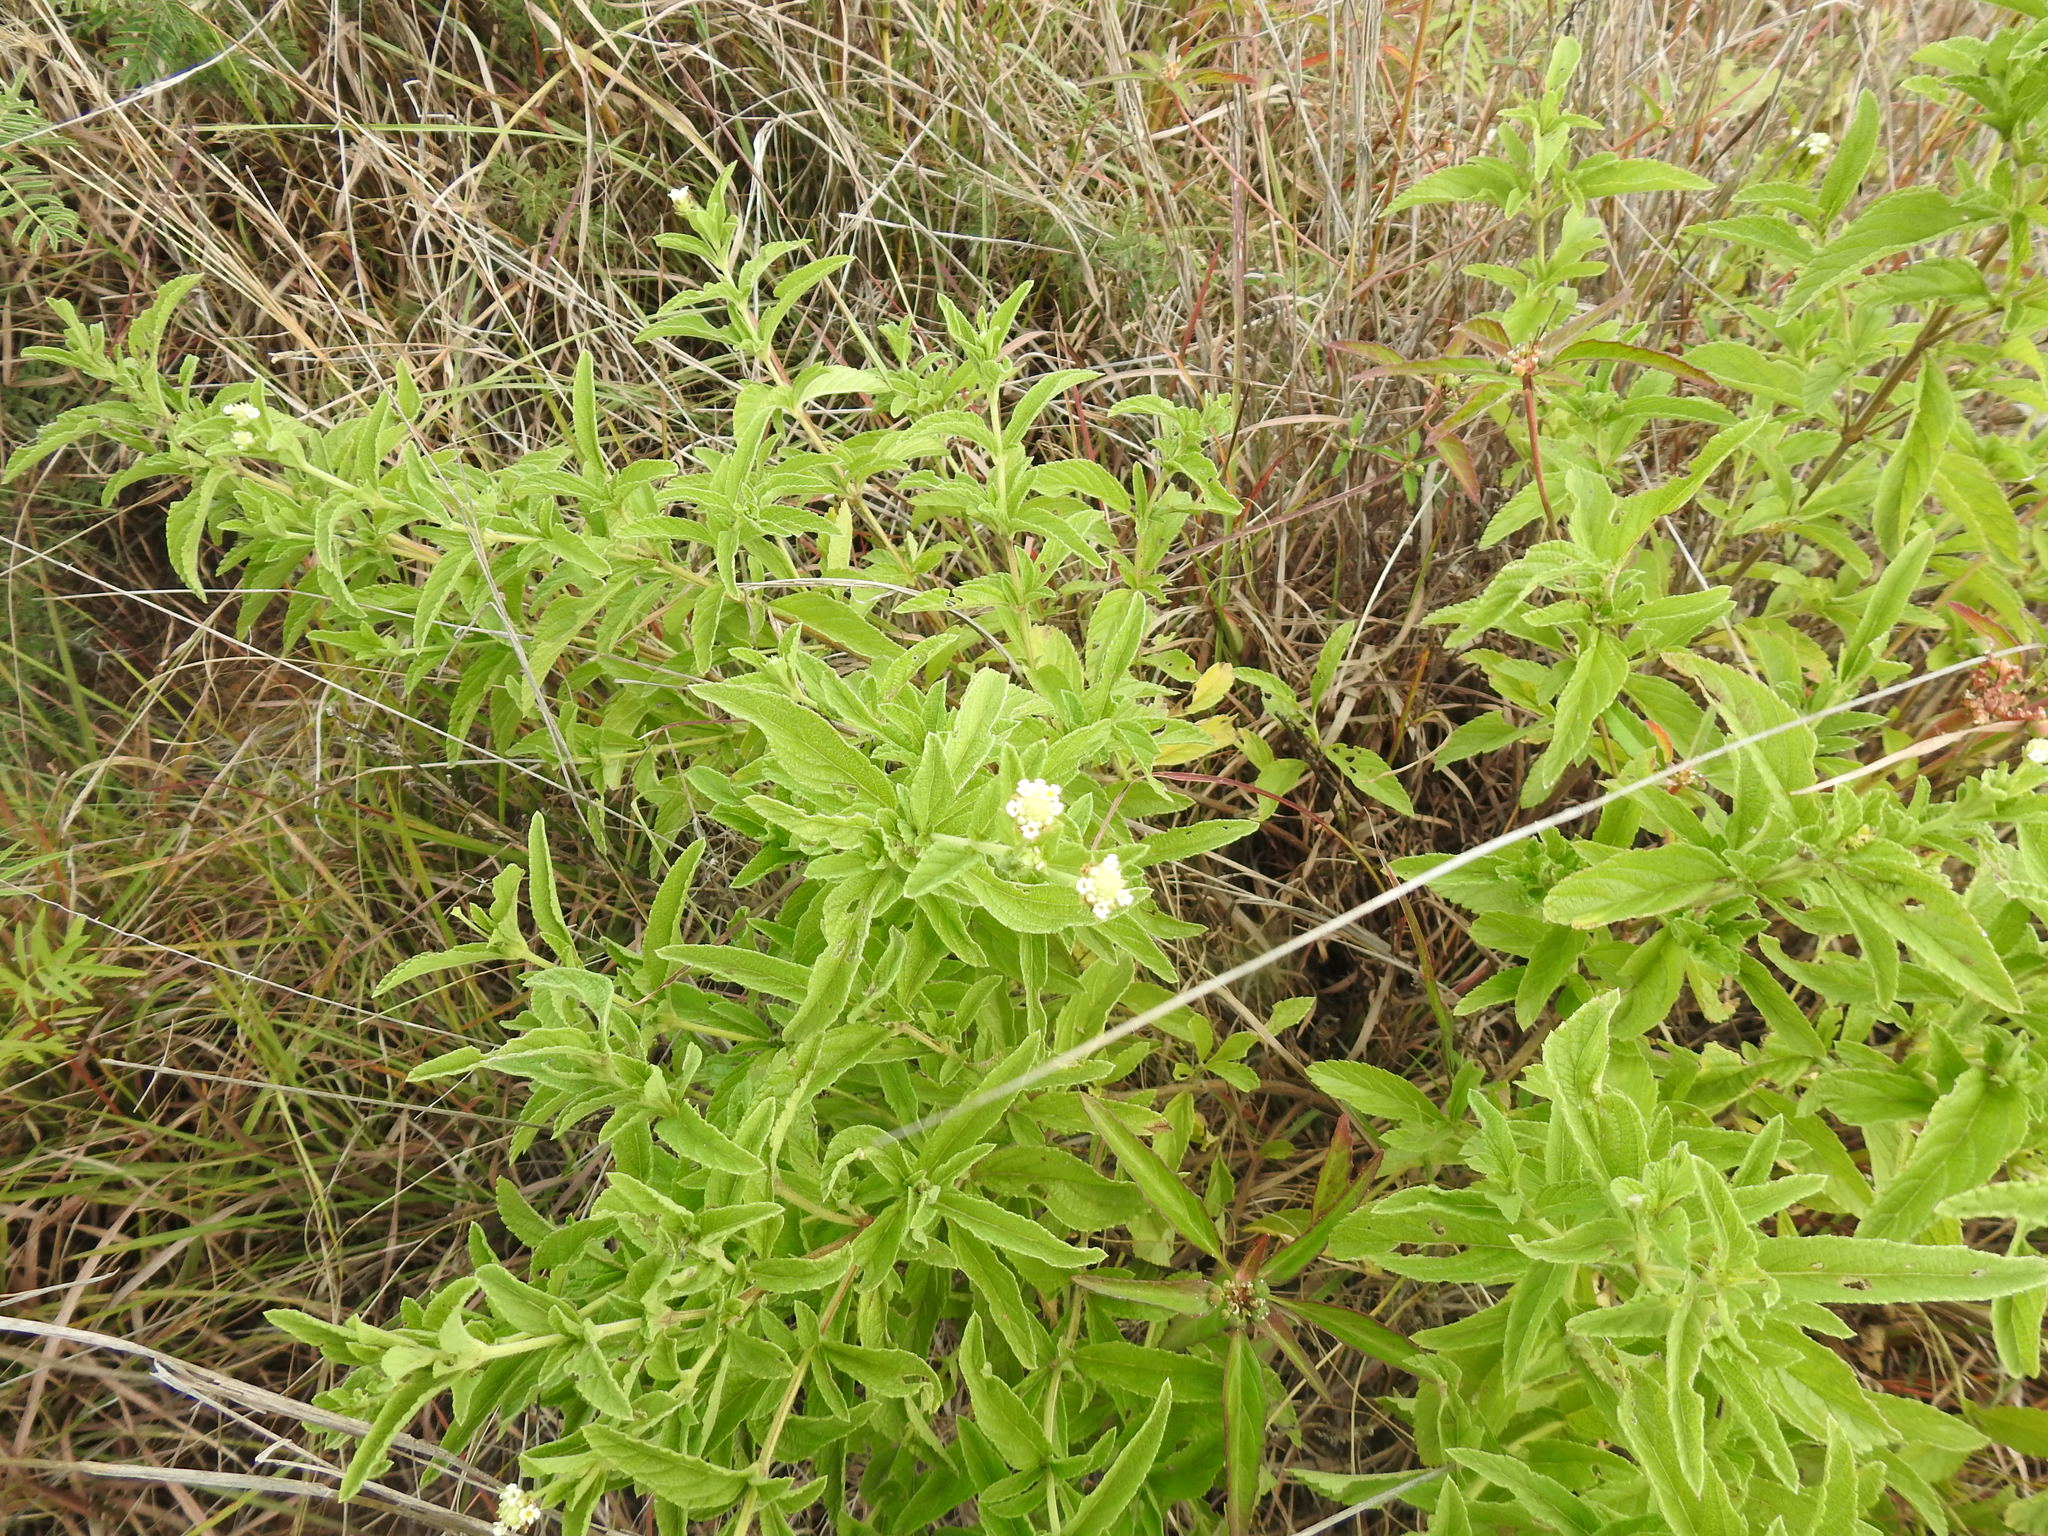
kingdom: Plantae
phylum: Tracheophyta
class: Magnoliopsida
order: Lamiales
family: Verbenaceae
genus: Lippia
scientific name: Lippia rehmannii
